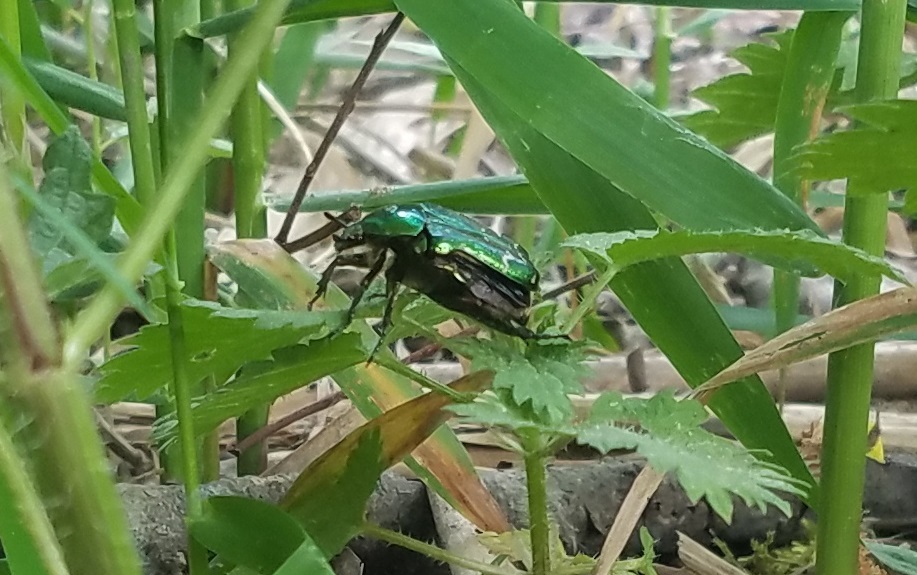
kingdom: Animalia
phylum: Arthropoda
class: Insecta
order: Coleoptera
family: Scarabaeidae
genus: Cetonia
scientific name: Cetonia aurata
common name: Rose chafer
